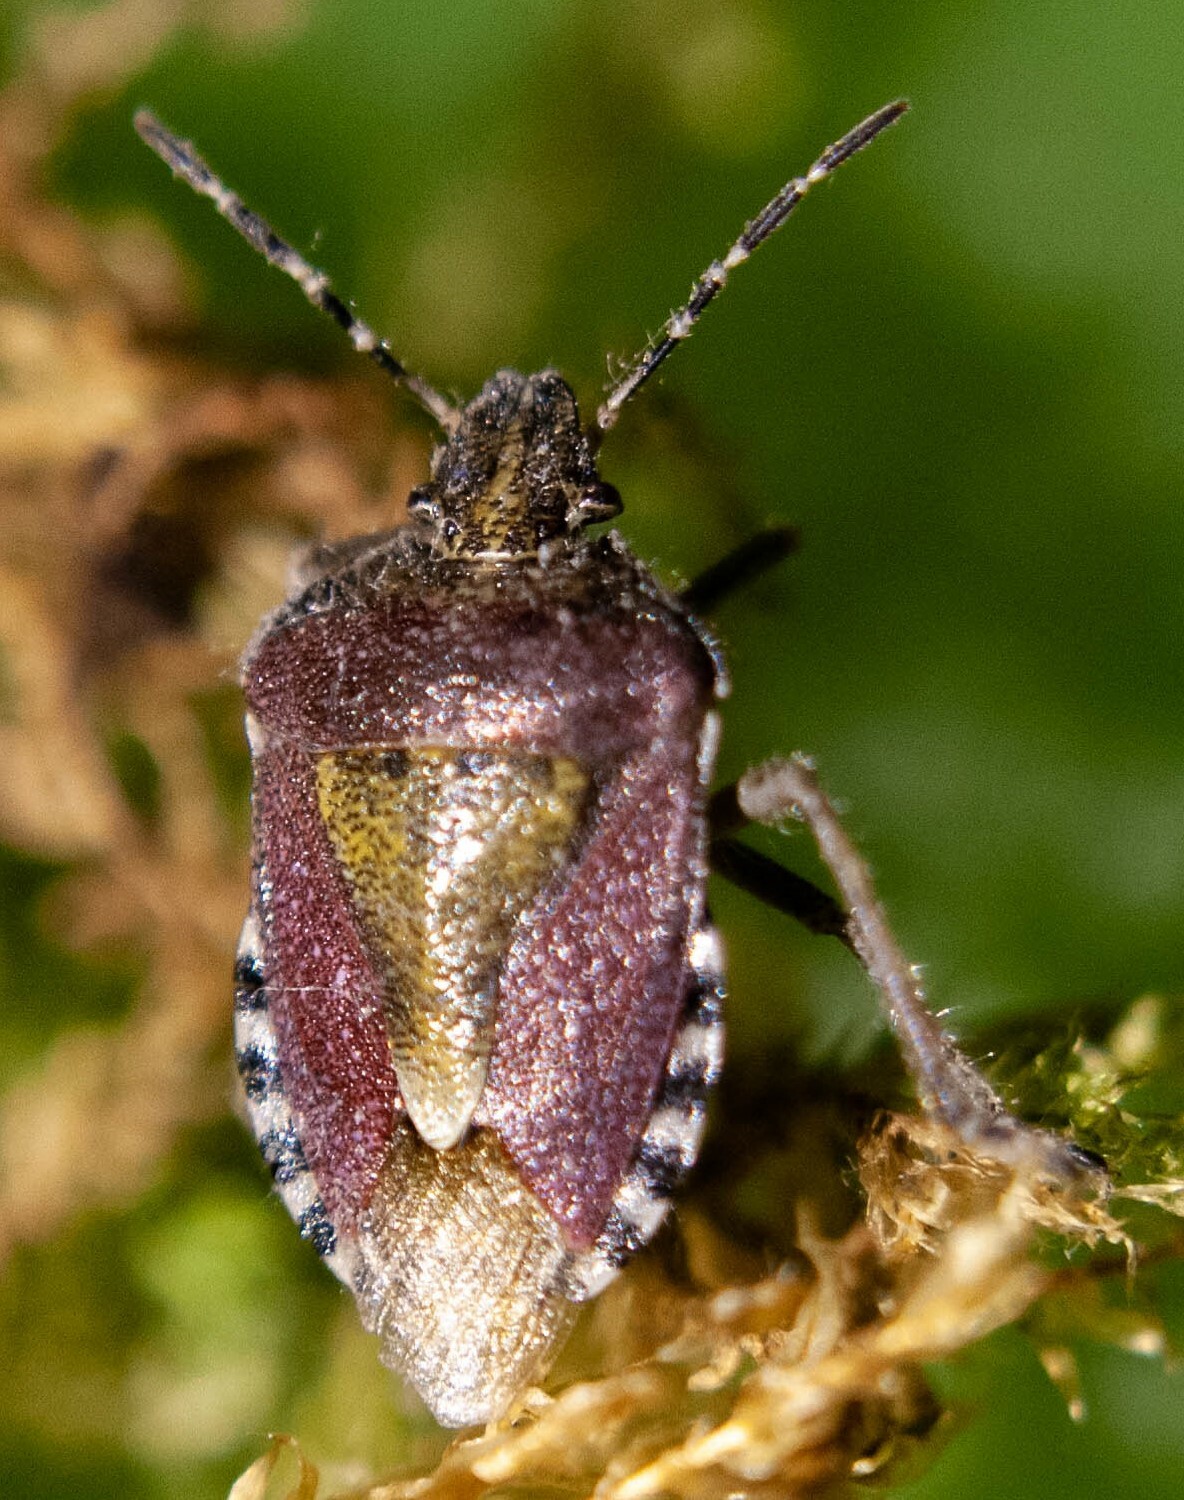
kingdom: Animalia
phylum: Arthropoda
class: Insecta
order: Hemiptera
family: Pentatomidae
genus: Dolycoris
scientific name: Dolycoris baccarum
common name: Sloe bug
